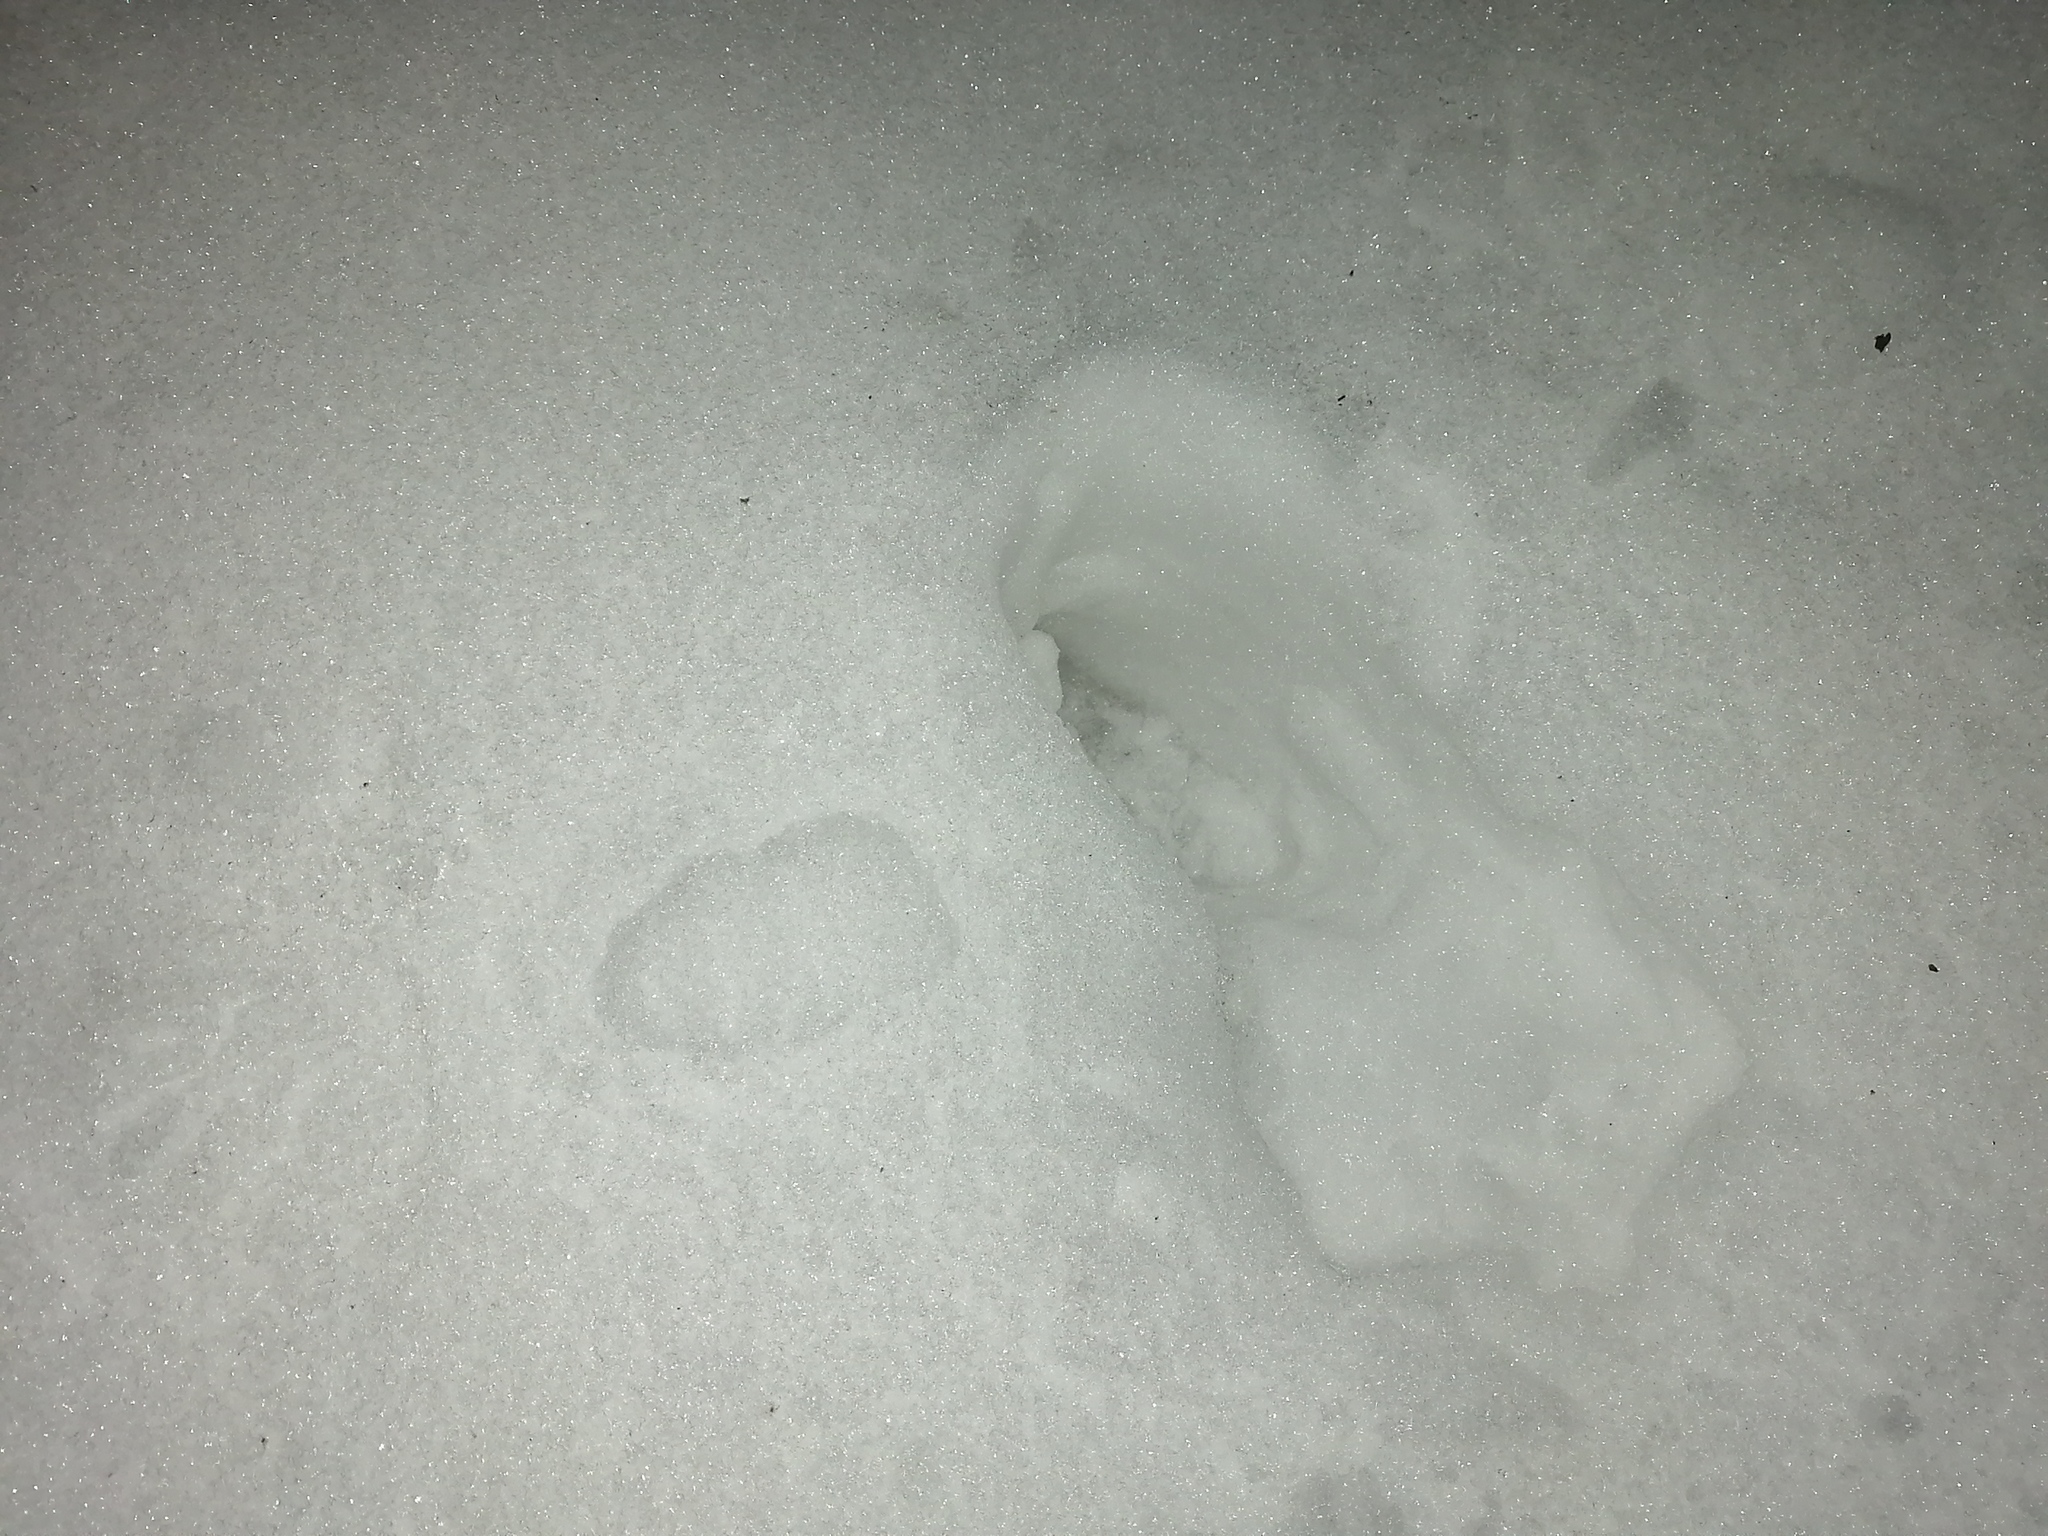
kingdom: Animalia
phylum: Chordata
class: Mammalia
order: Artiodactyla
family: Cervidae
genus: Alces
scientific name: Alces alces
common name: Moose
